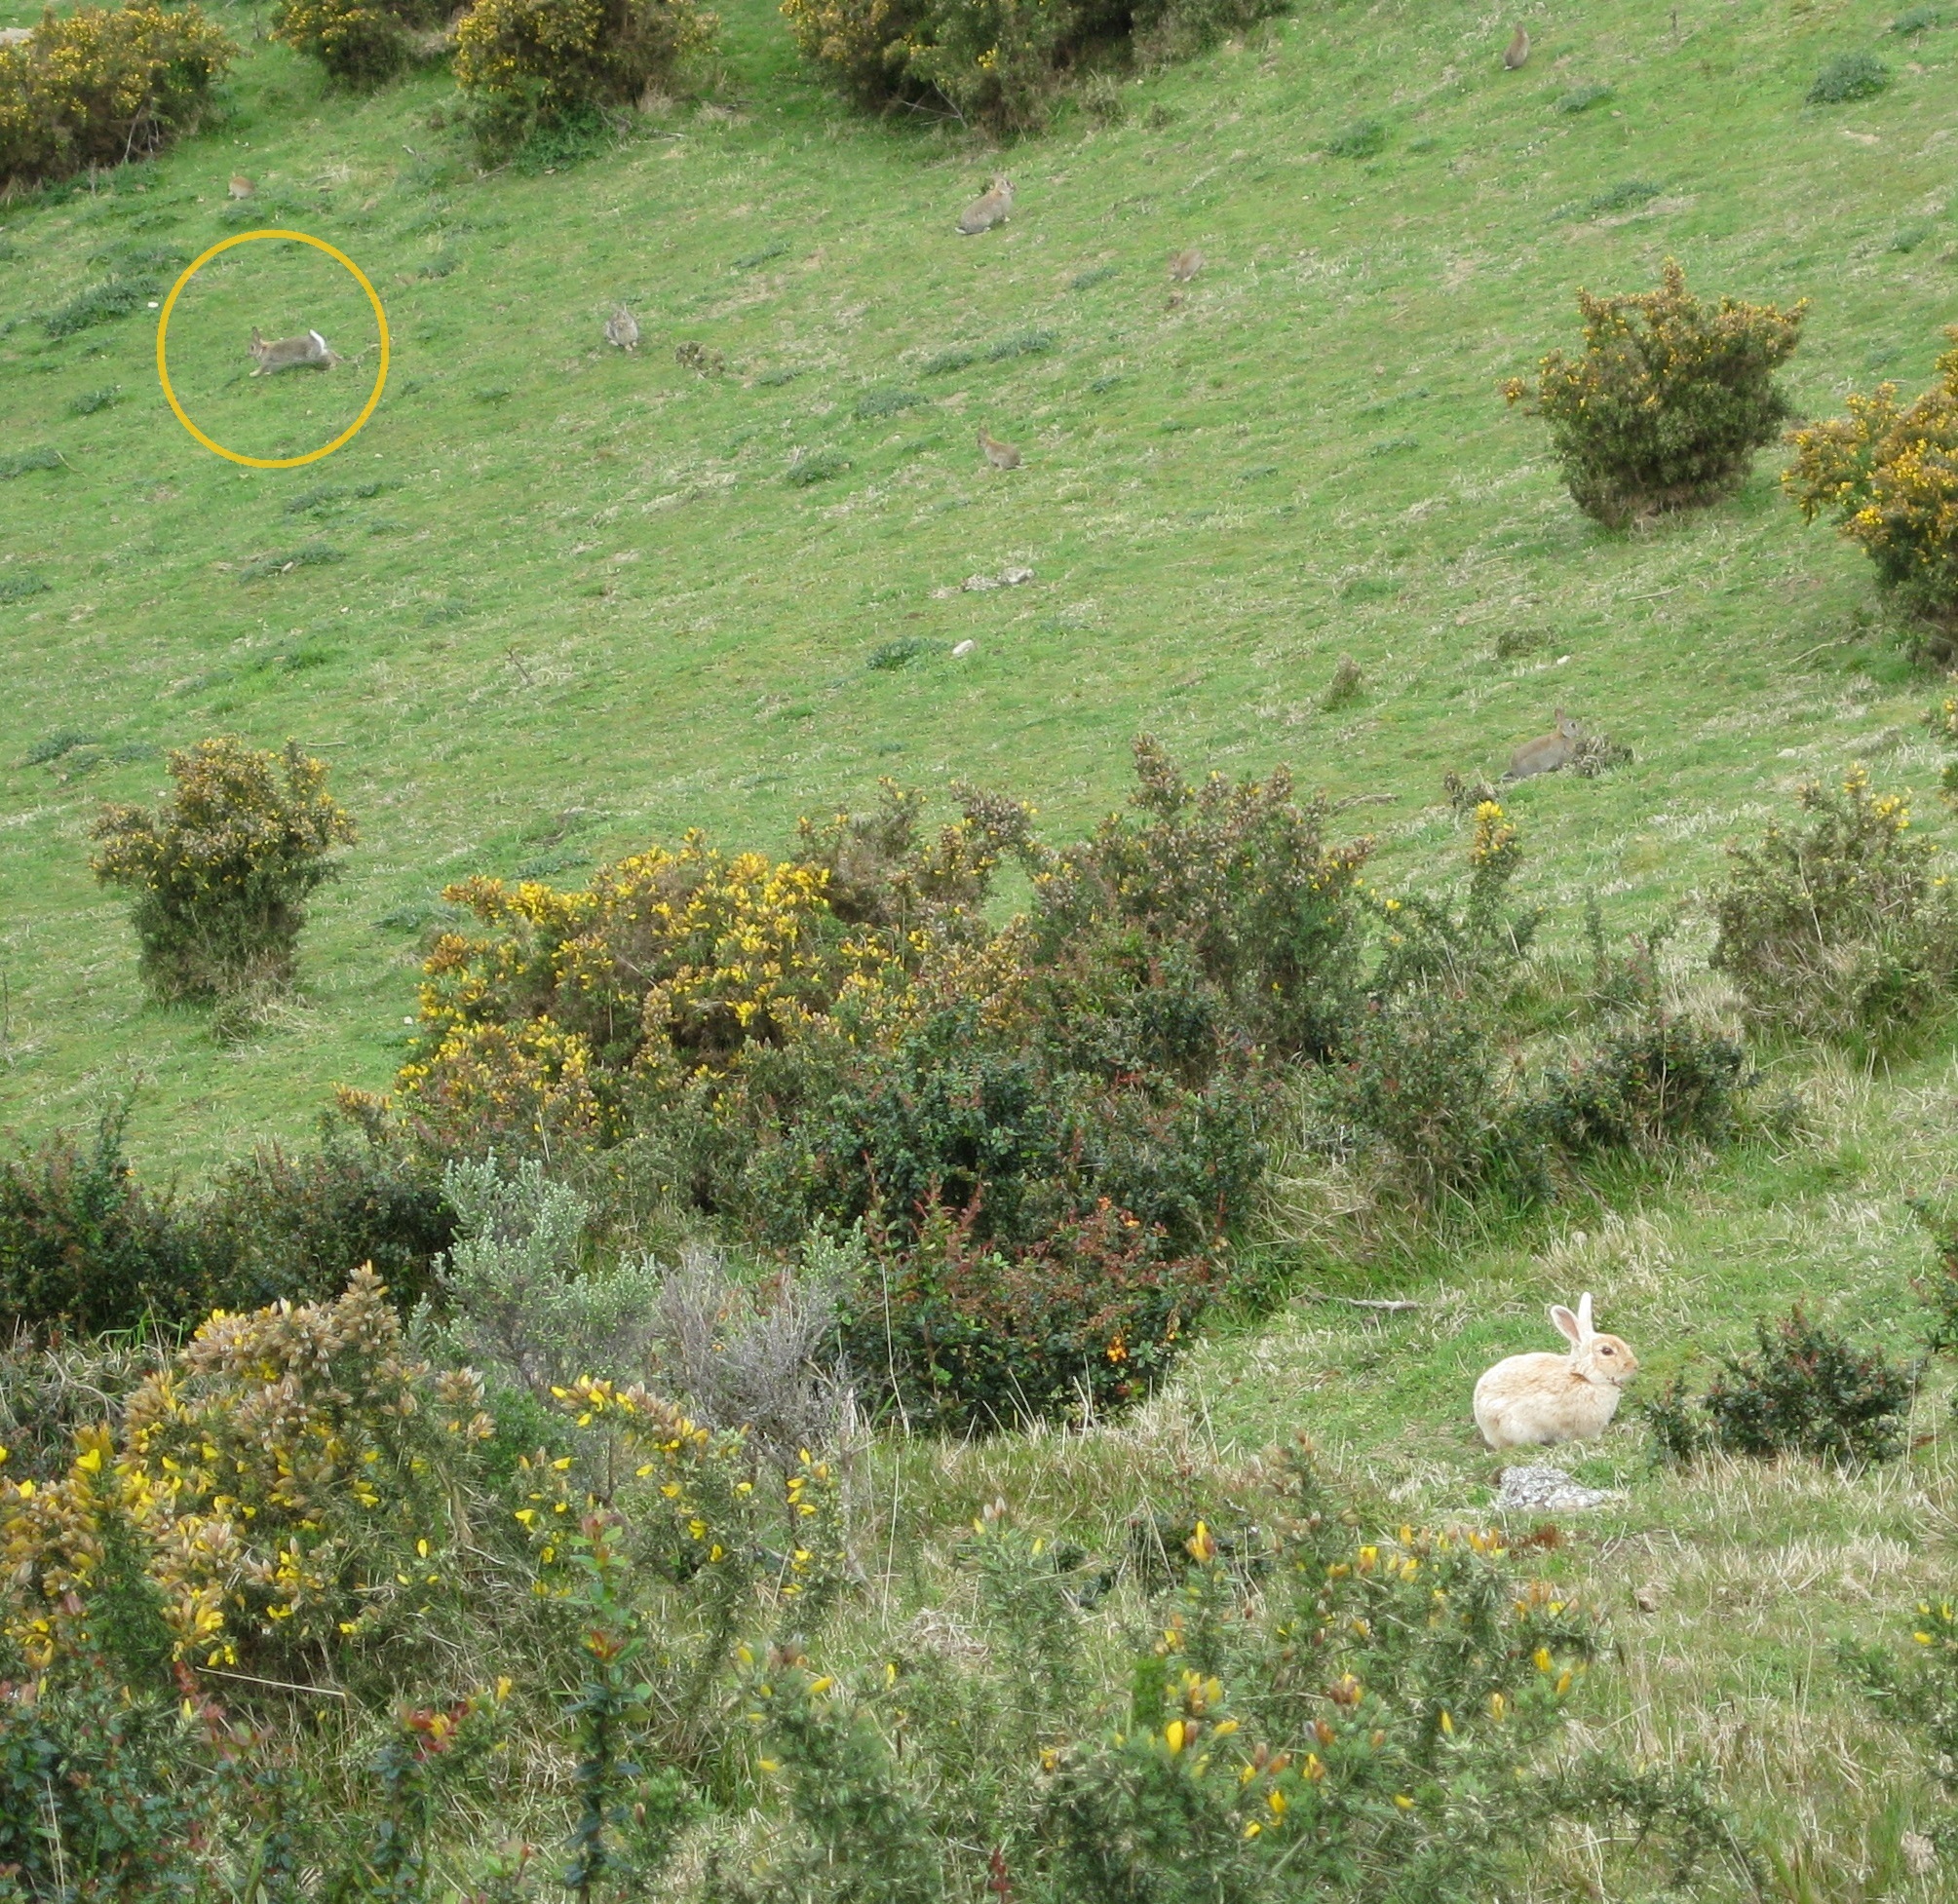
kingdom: Animalia
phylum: Chordata
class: Mammalia
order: Lagomorpha
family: Leporidae
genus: Oryctolagus
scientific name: Oryctolagus cuniculus
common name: European rabbit
